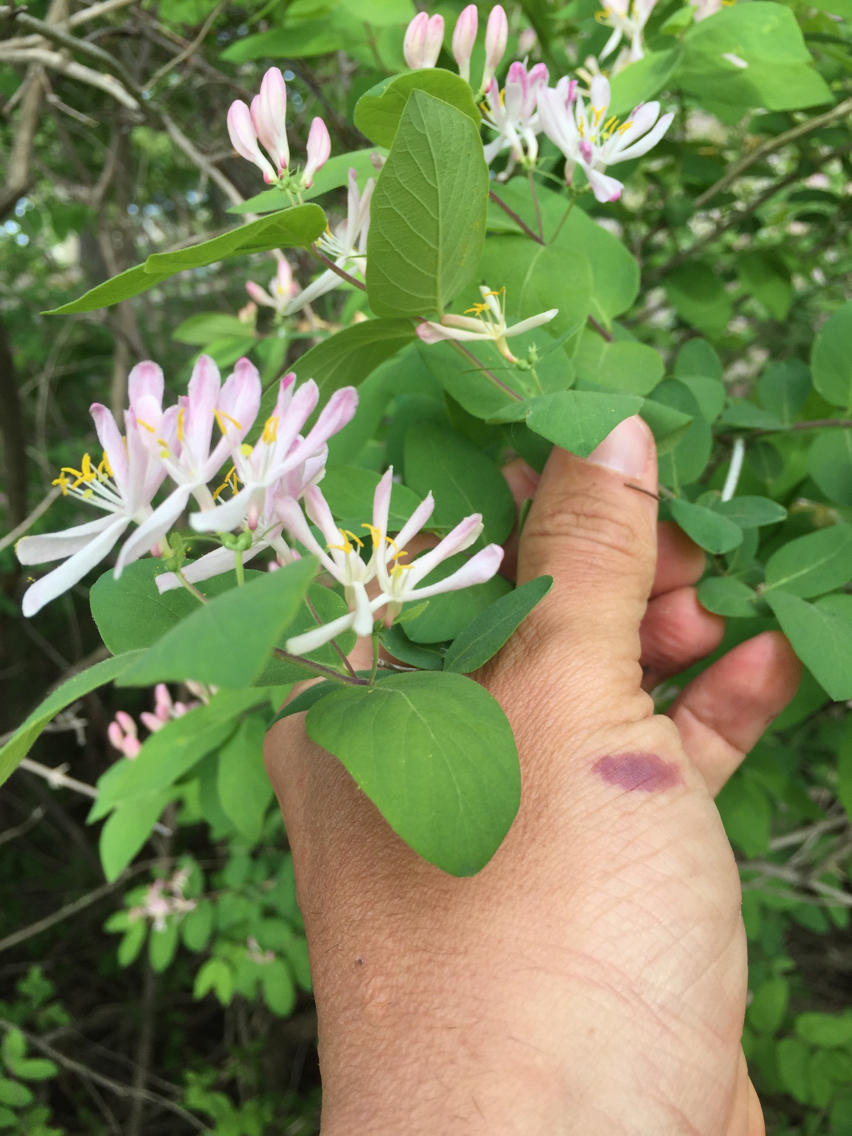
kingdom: Plantae
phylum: Tracheophyta
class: Magnoliopsida
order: Dipsacales
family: Caprifoliaceae
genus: Lonicera
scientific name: Lonicera bella
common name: Bell's honeysuckle
